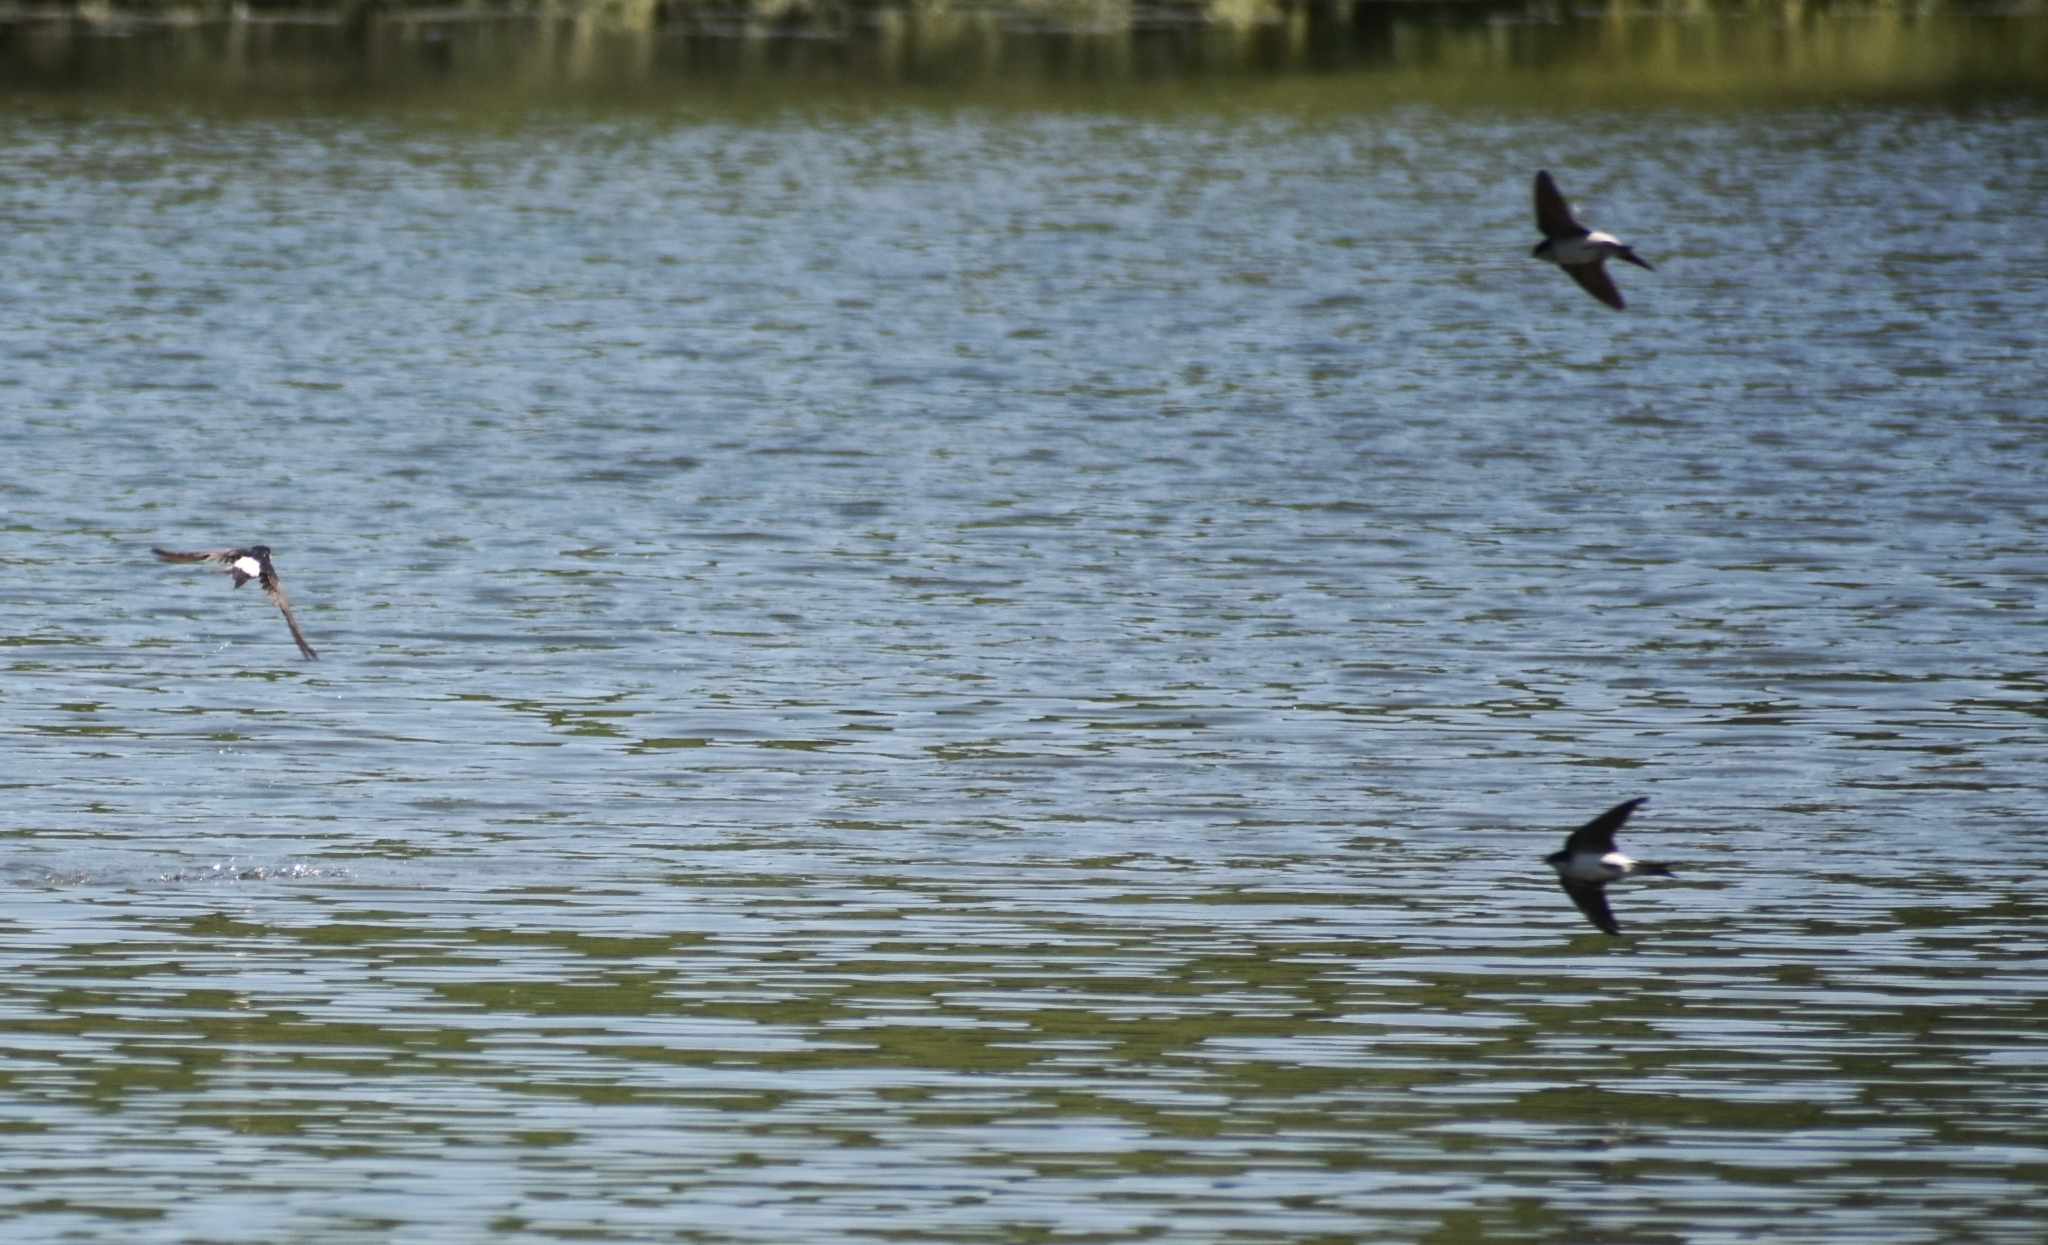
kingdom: Animalia
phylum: Chordata
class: Aves
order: Passeriformes
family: Hirundinidae
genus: Delichon
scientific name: Delichon urbicum
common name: Common house martin
